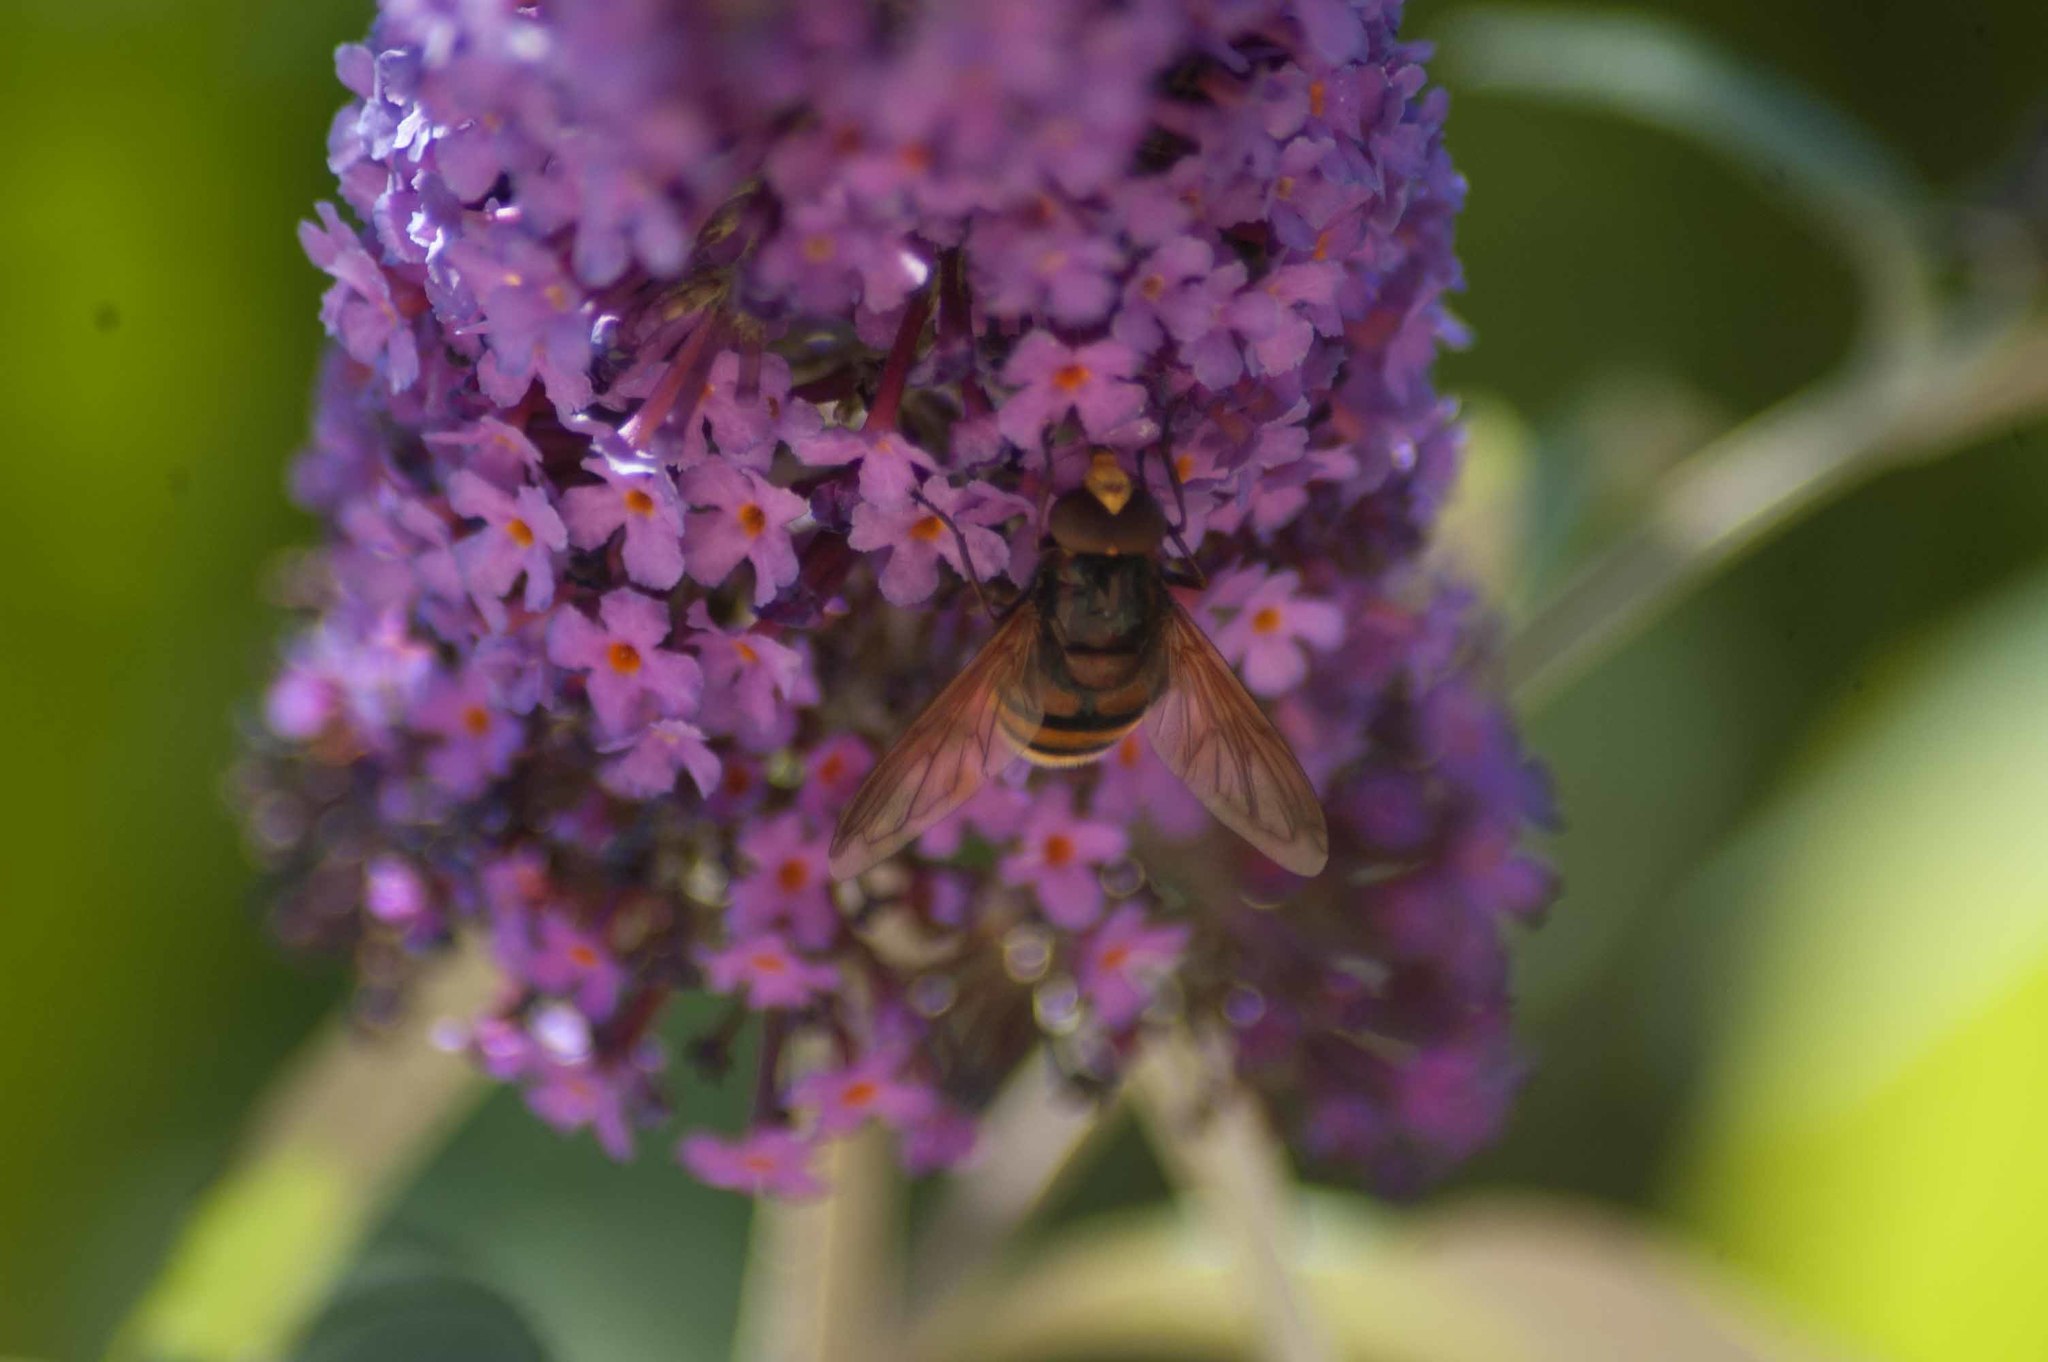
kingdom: Animalia
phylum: Arthropoda
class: Insecta
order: Diptera
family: Syrphidae
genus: Volucella
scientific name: Volucella zonaria
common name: Hornet hoverfly
